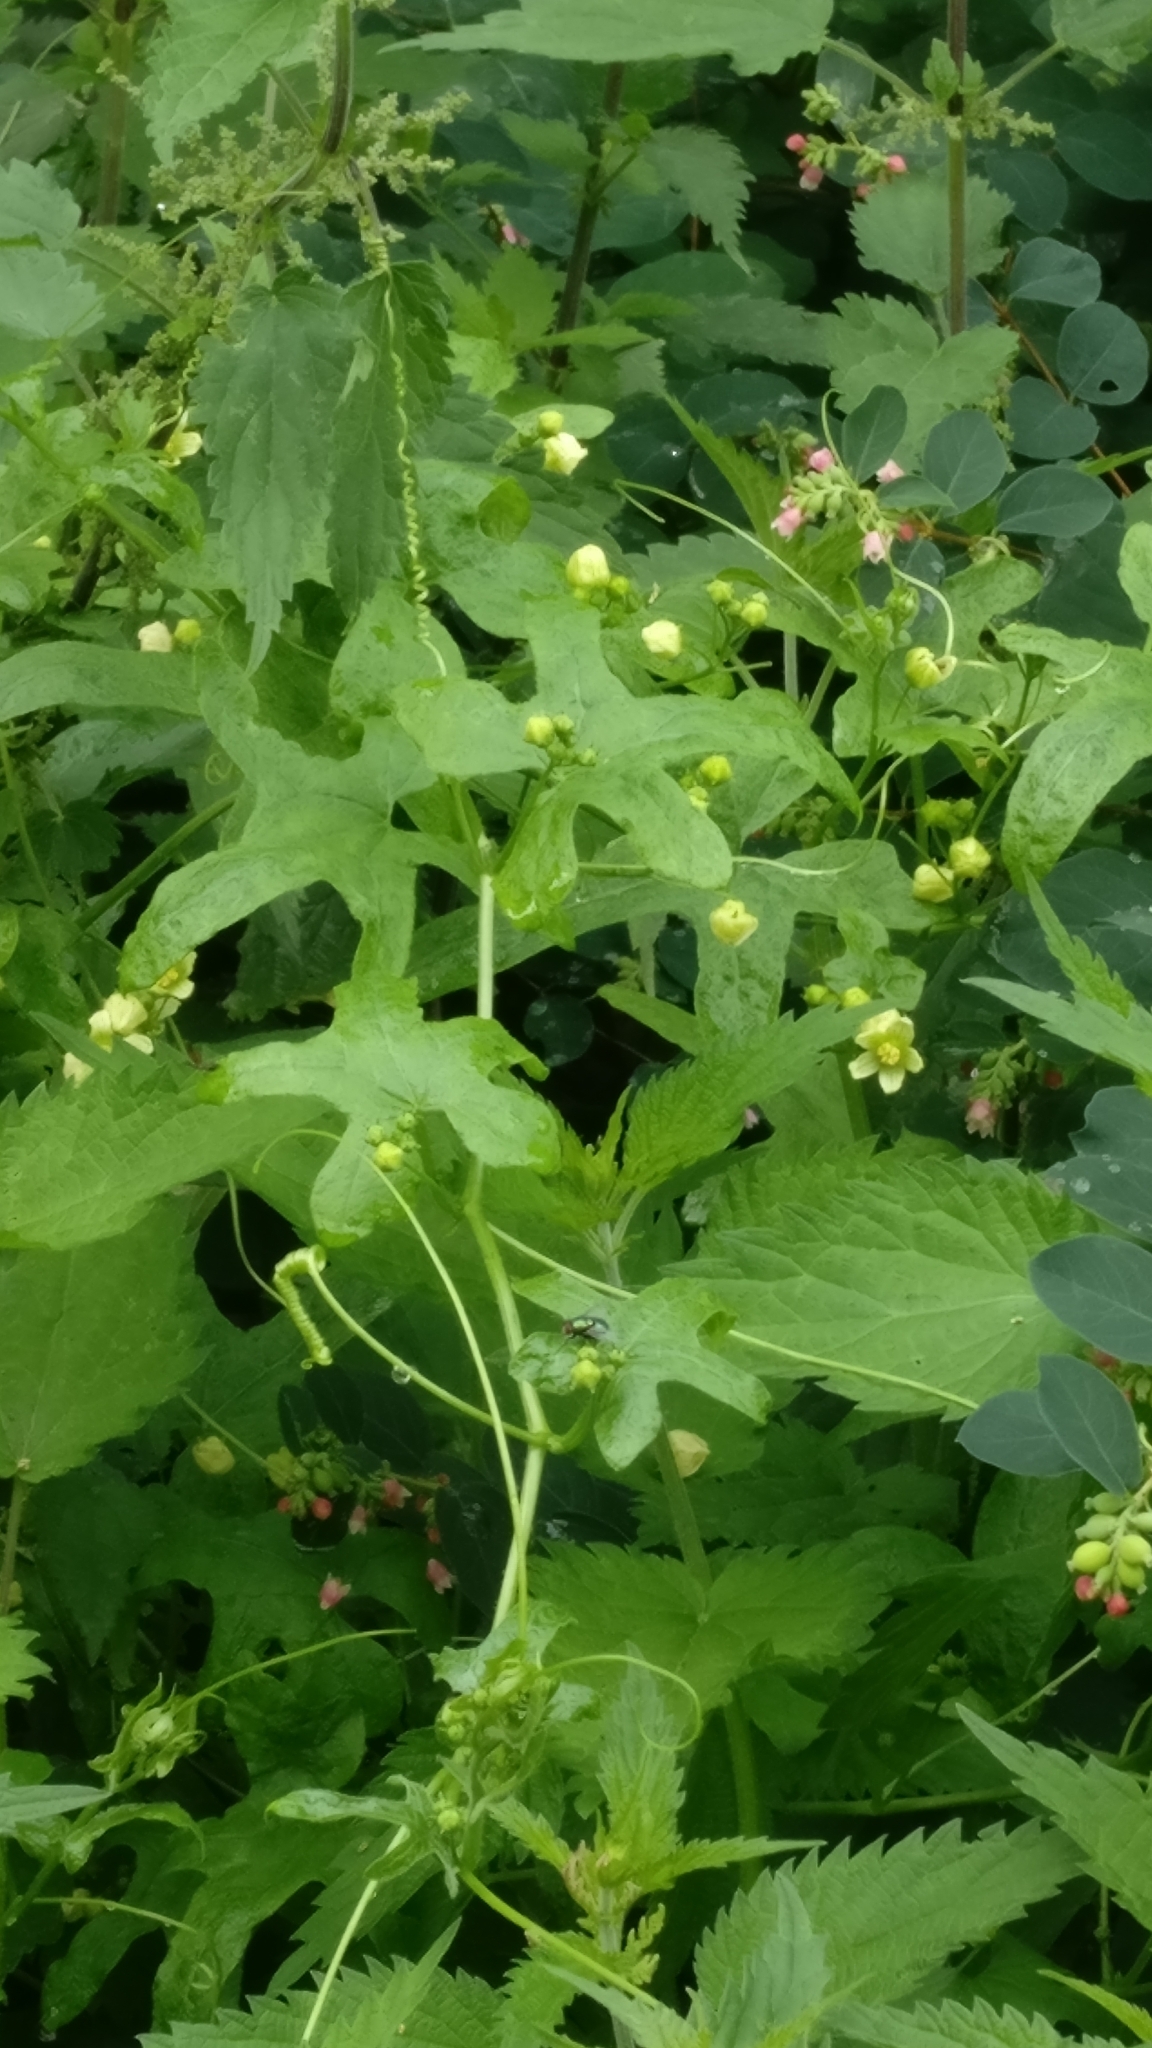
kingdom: Plantae
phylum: Tracheophyta
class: Magnoliopsida
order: Cucurbitales
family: Cucurbitaceae
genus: Bryonia
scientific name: Bryonia cretica
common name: Cretan bryony
